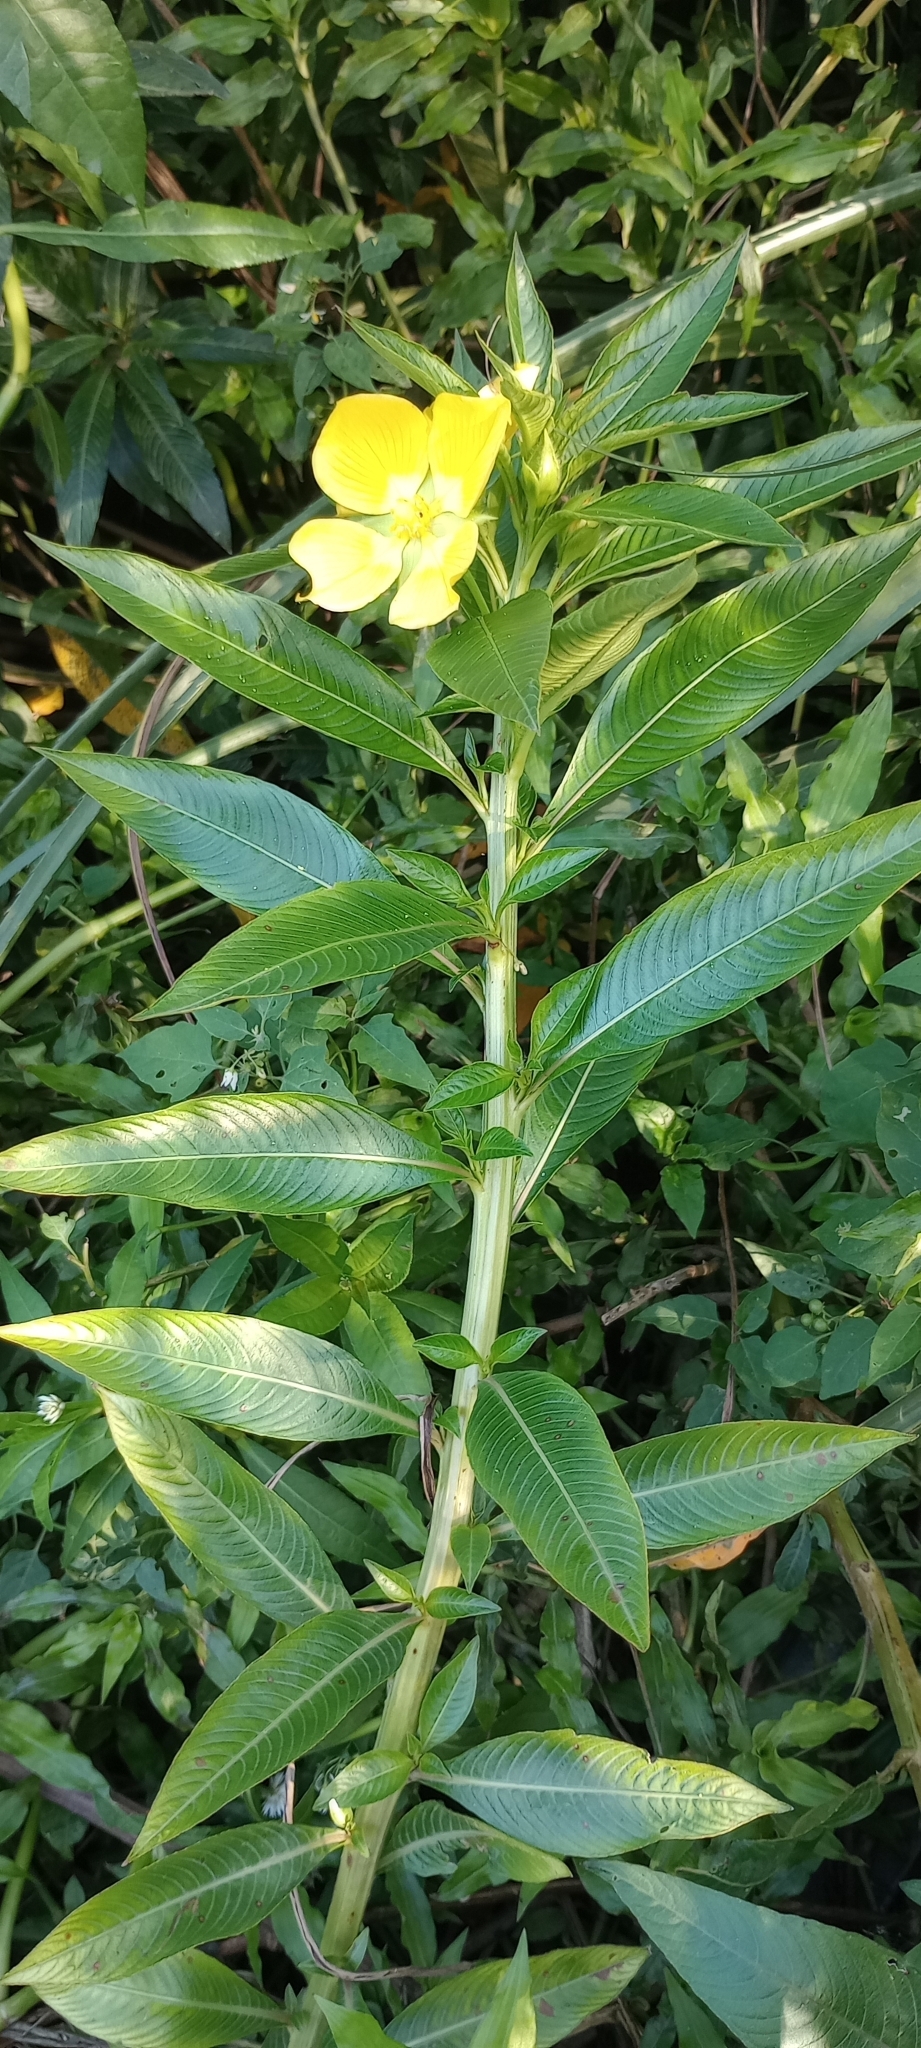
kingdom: Plantae
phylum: Tracheophyta
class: Magnoliopsida
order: Myrtales
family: Onagraceae
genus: Ludwigia
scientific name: Ludwigia elegans
